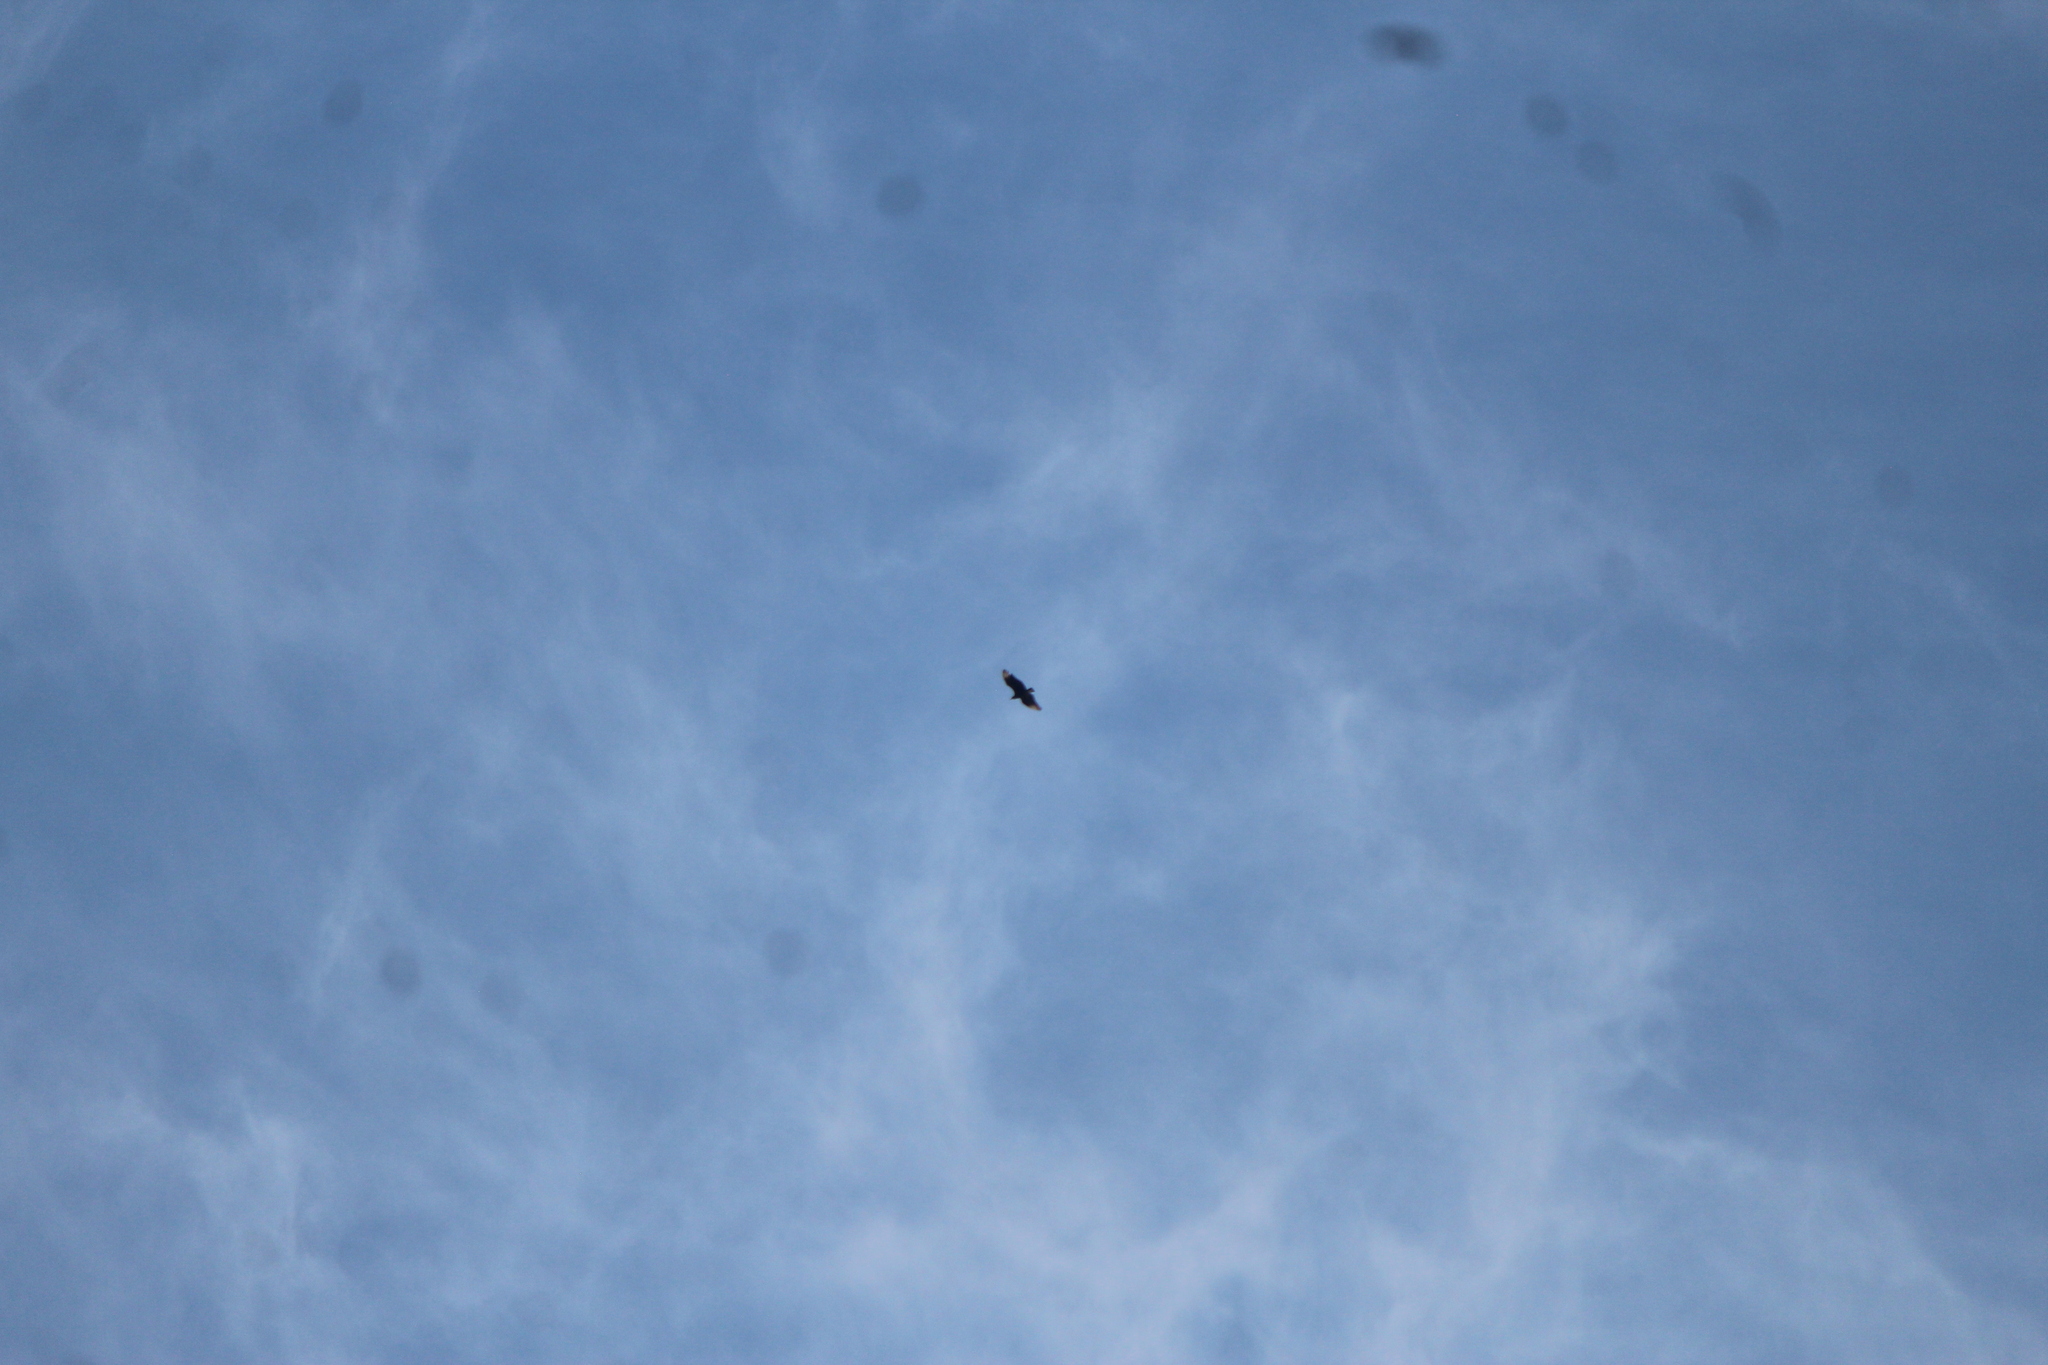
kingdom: Animalia
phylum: Chordata
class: Aves
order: Accipitriformes
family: Cathartidae
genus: Coragyps
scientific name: Coragyps atratus
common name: Black vulture
